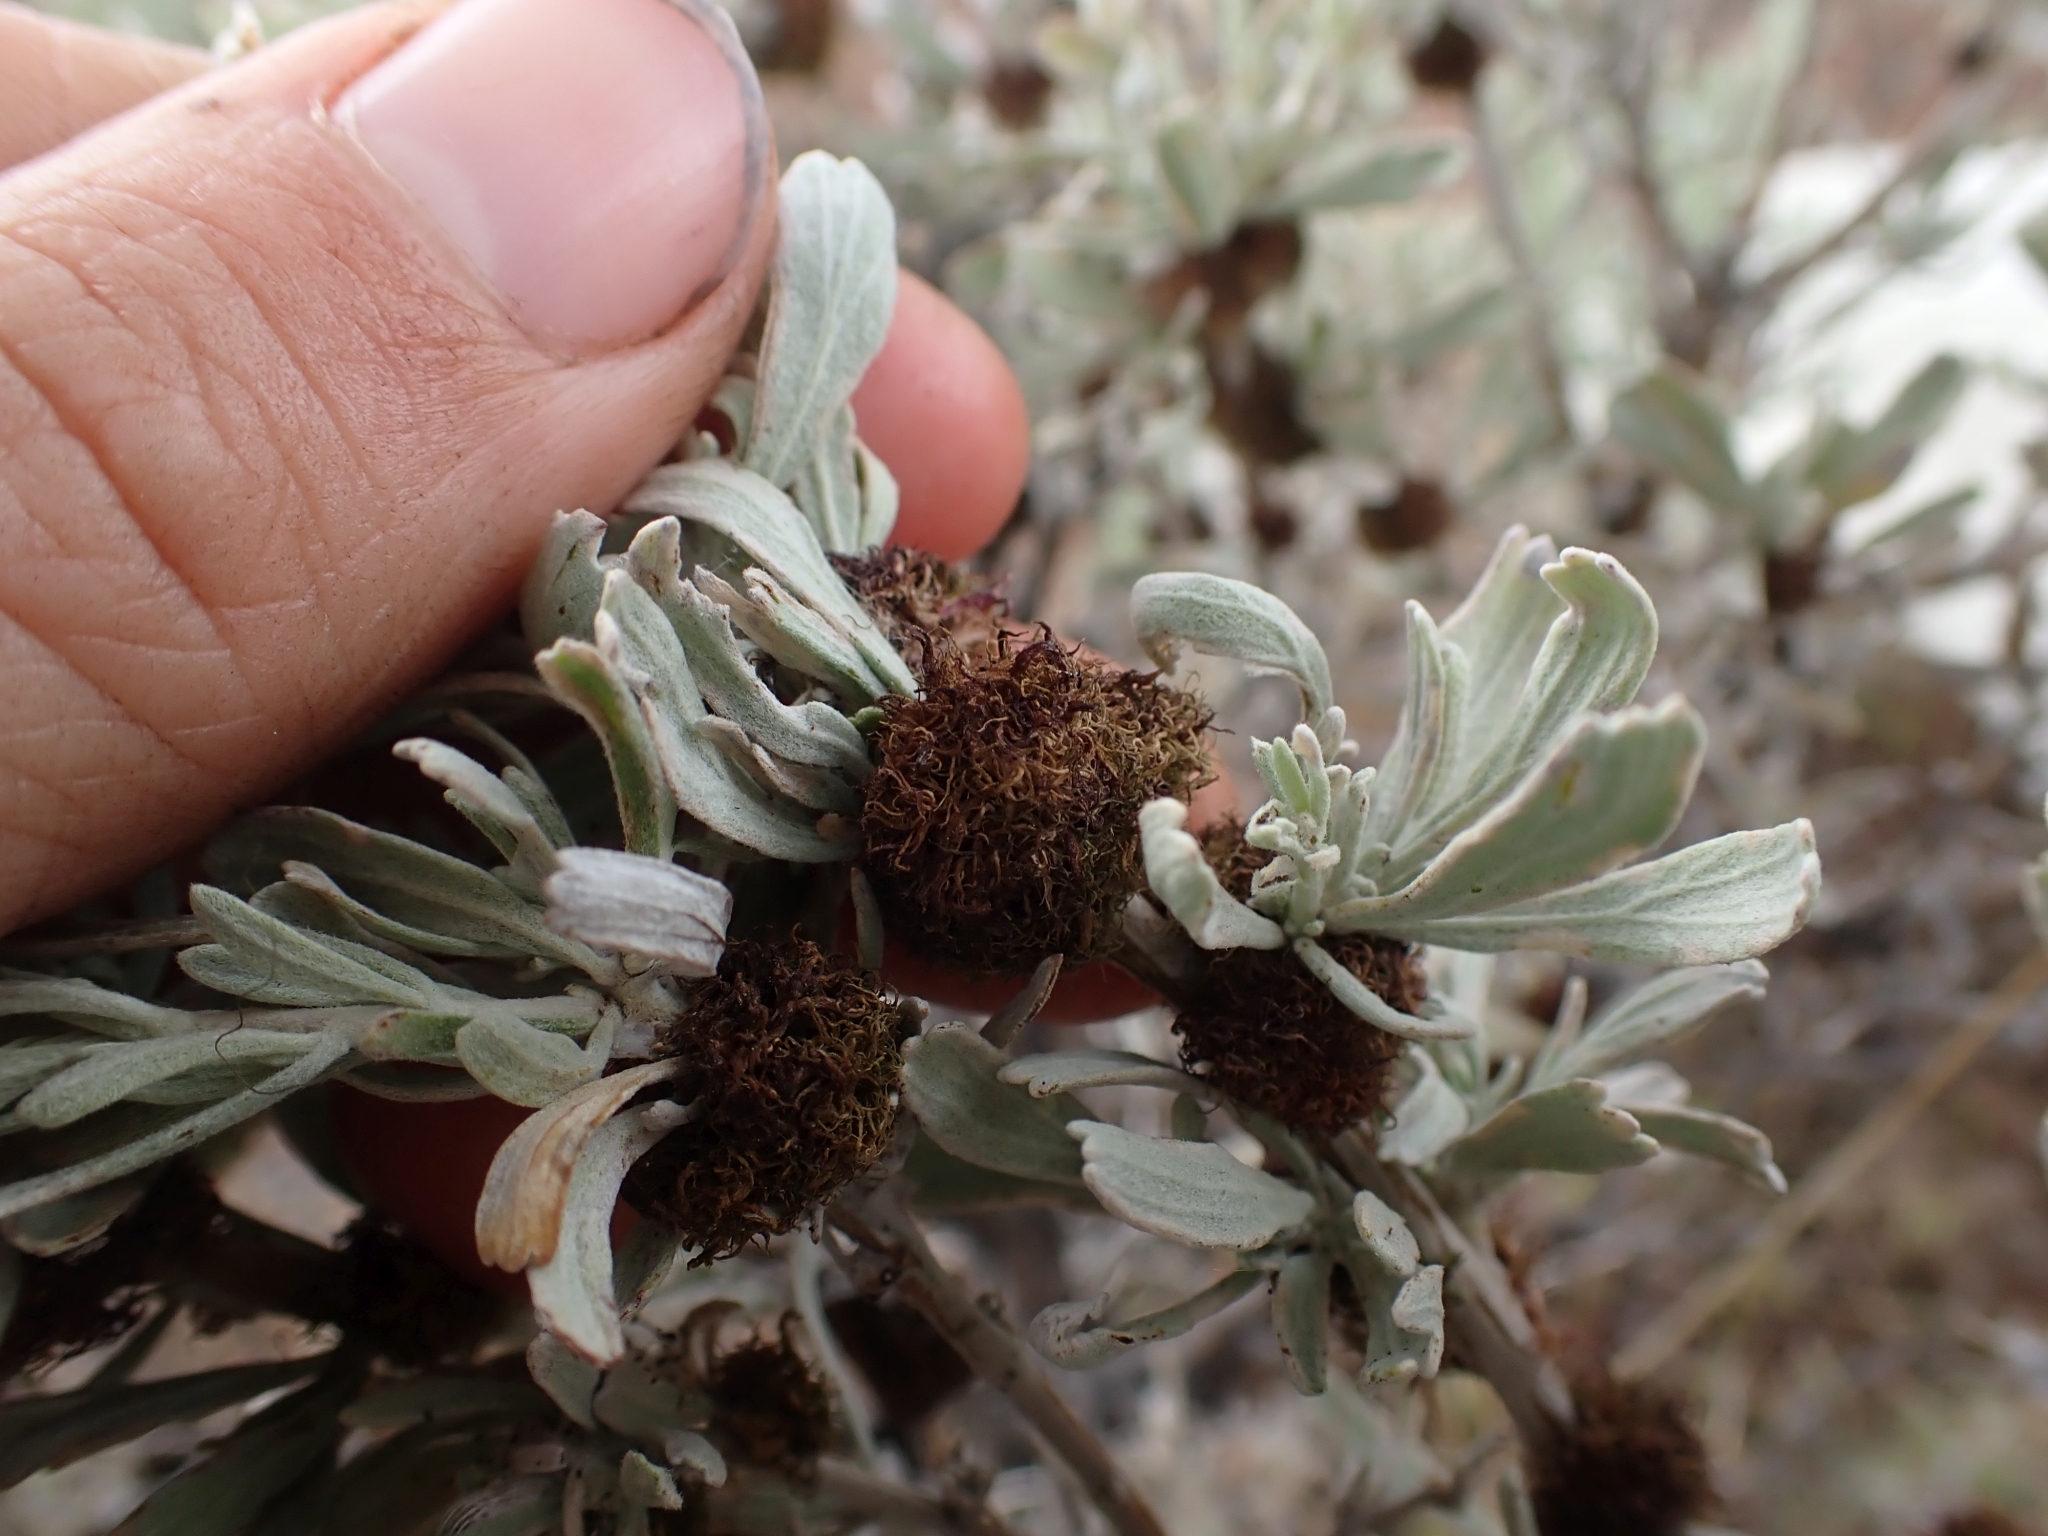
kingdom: Animalia
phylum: Arthropoda
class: Insecta
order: Diptera
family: Cecidomyiidae
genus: Rhopalomyia
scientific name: Rhopalomyia medusa
